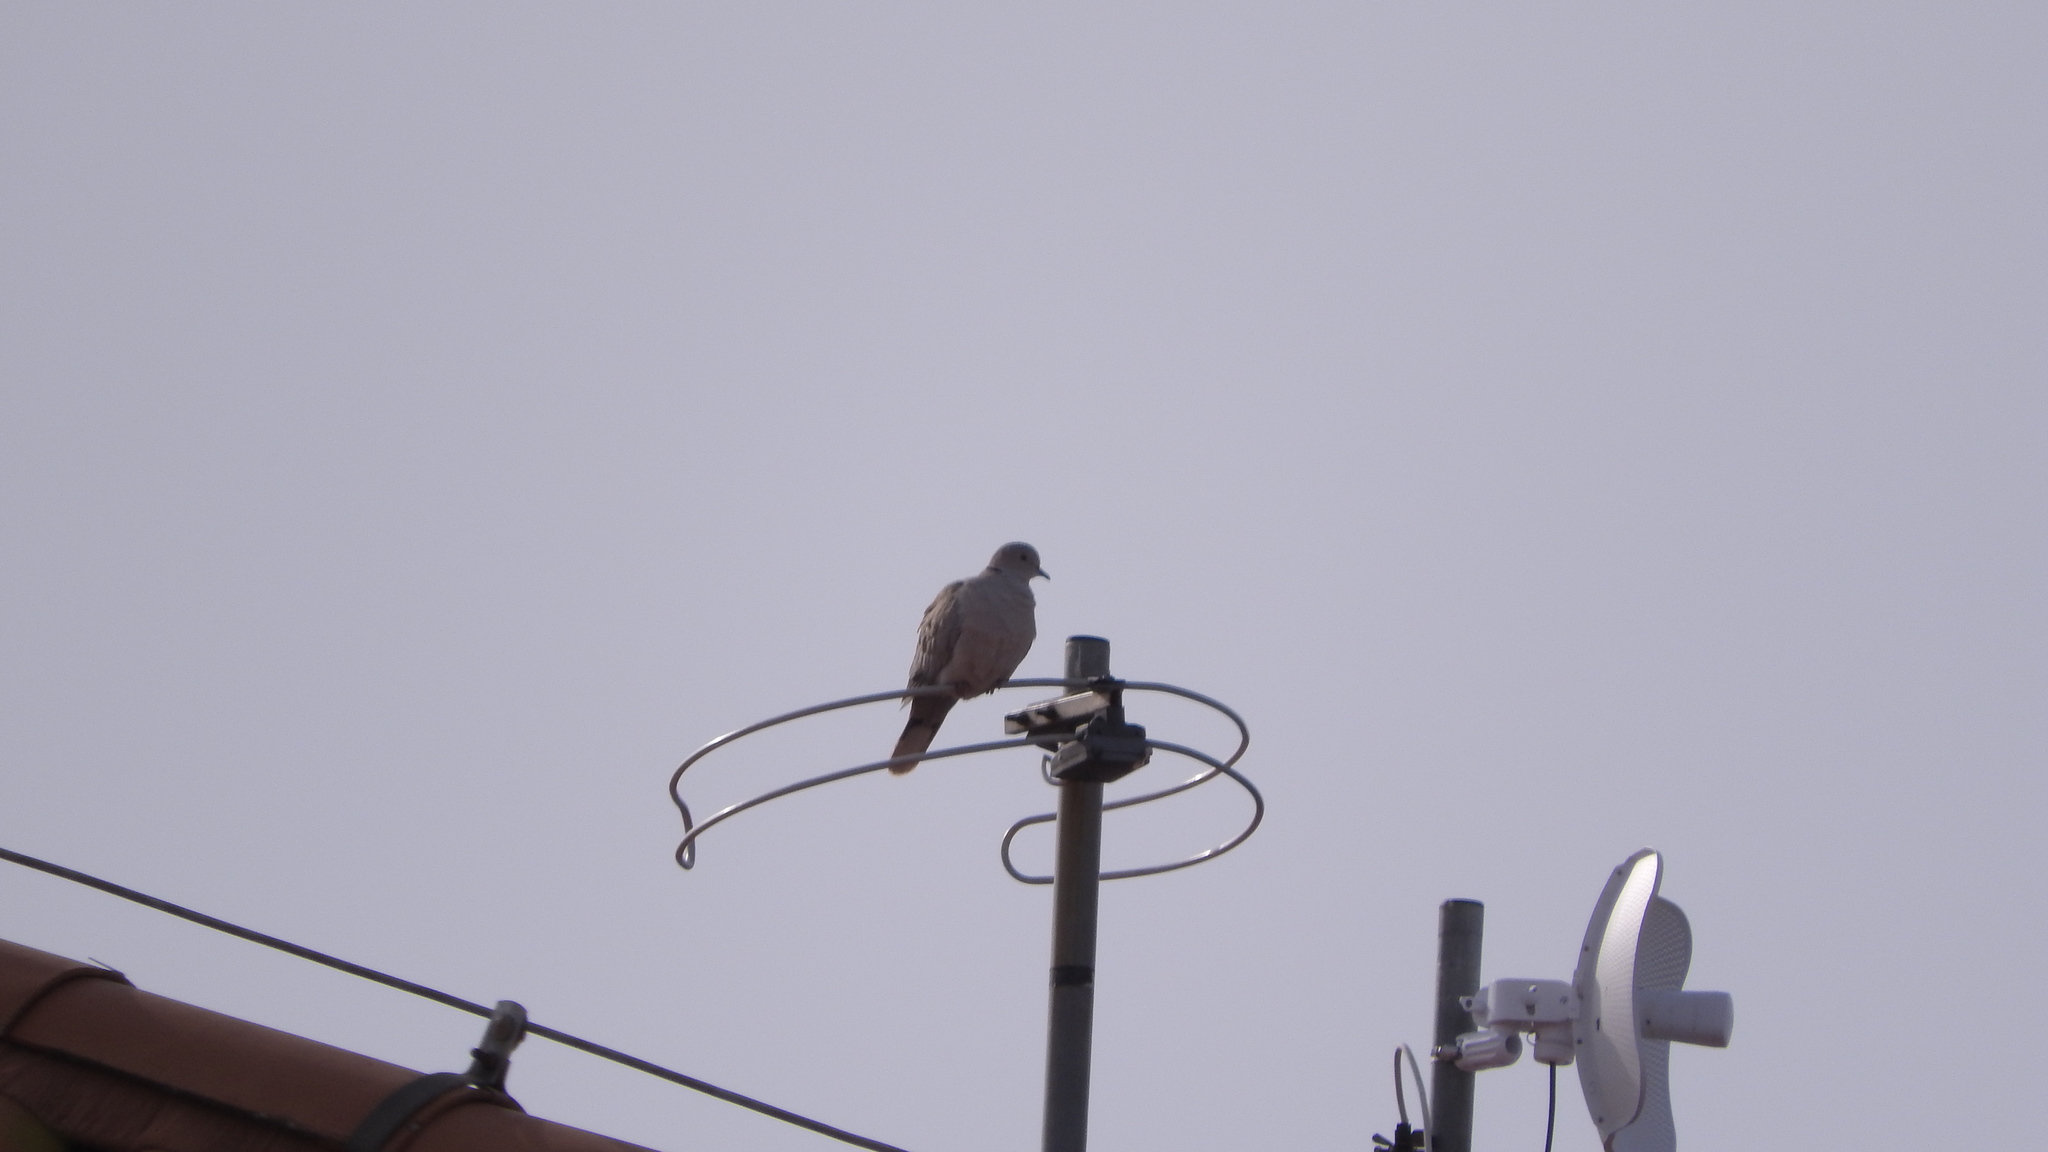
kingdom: Animalia
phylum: Chordata
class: Aves
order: Columbiformes
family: Columbidae
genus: Streptopelia
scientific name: Streptopelia decaocto
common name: Eurasian collared dove
